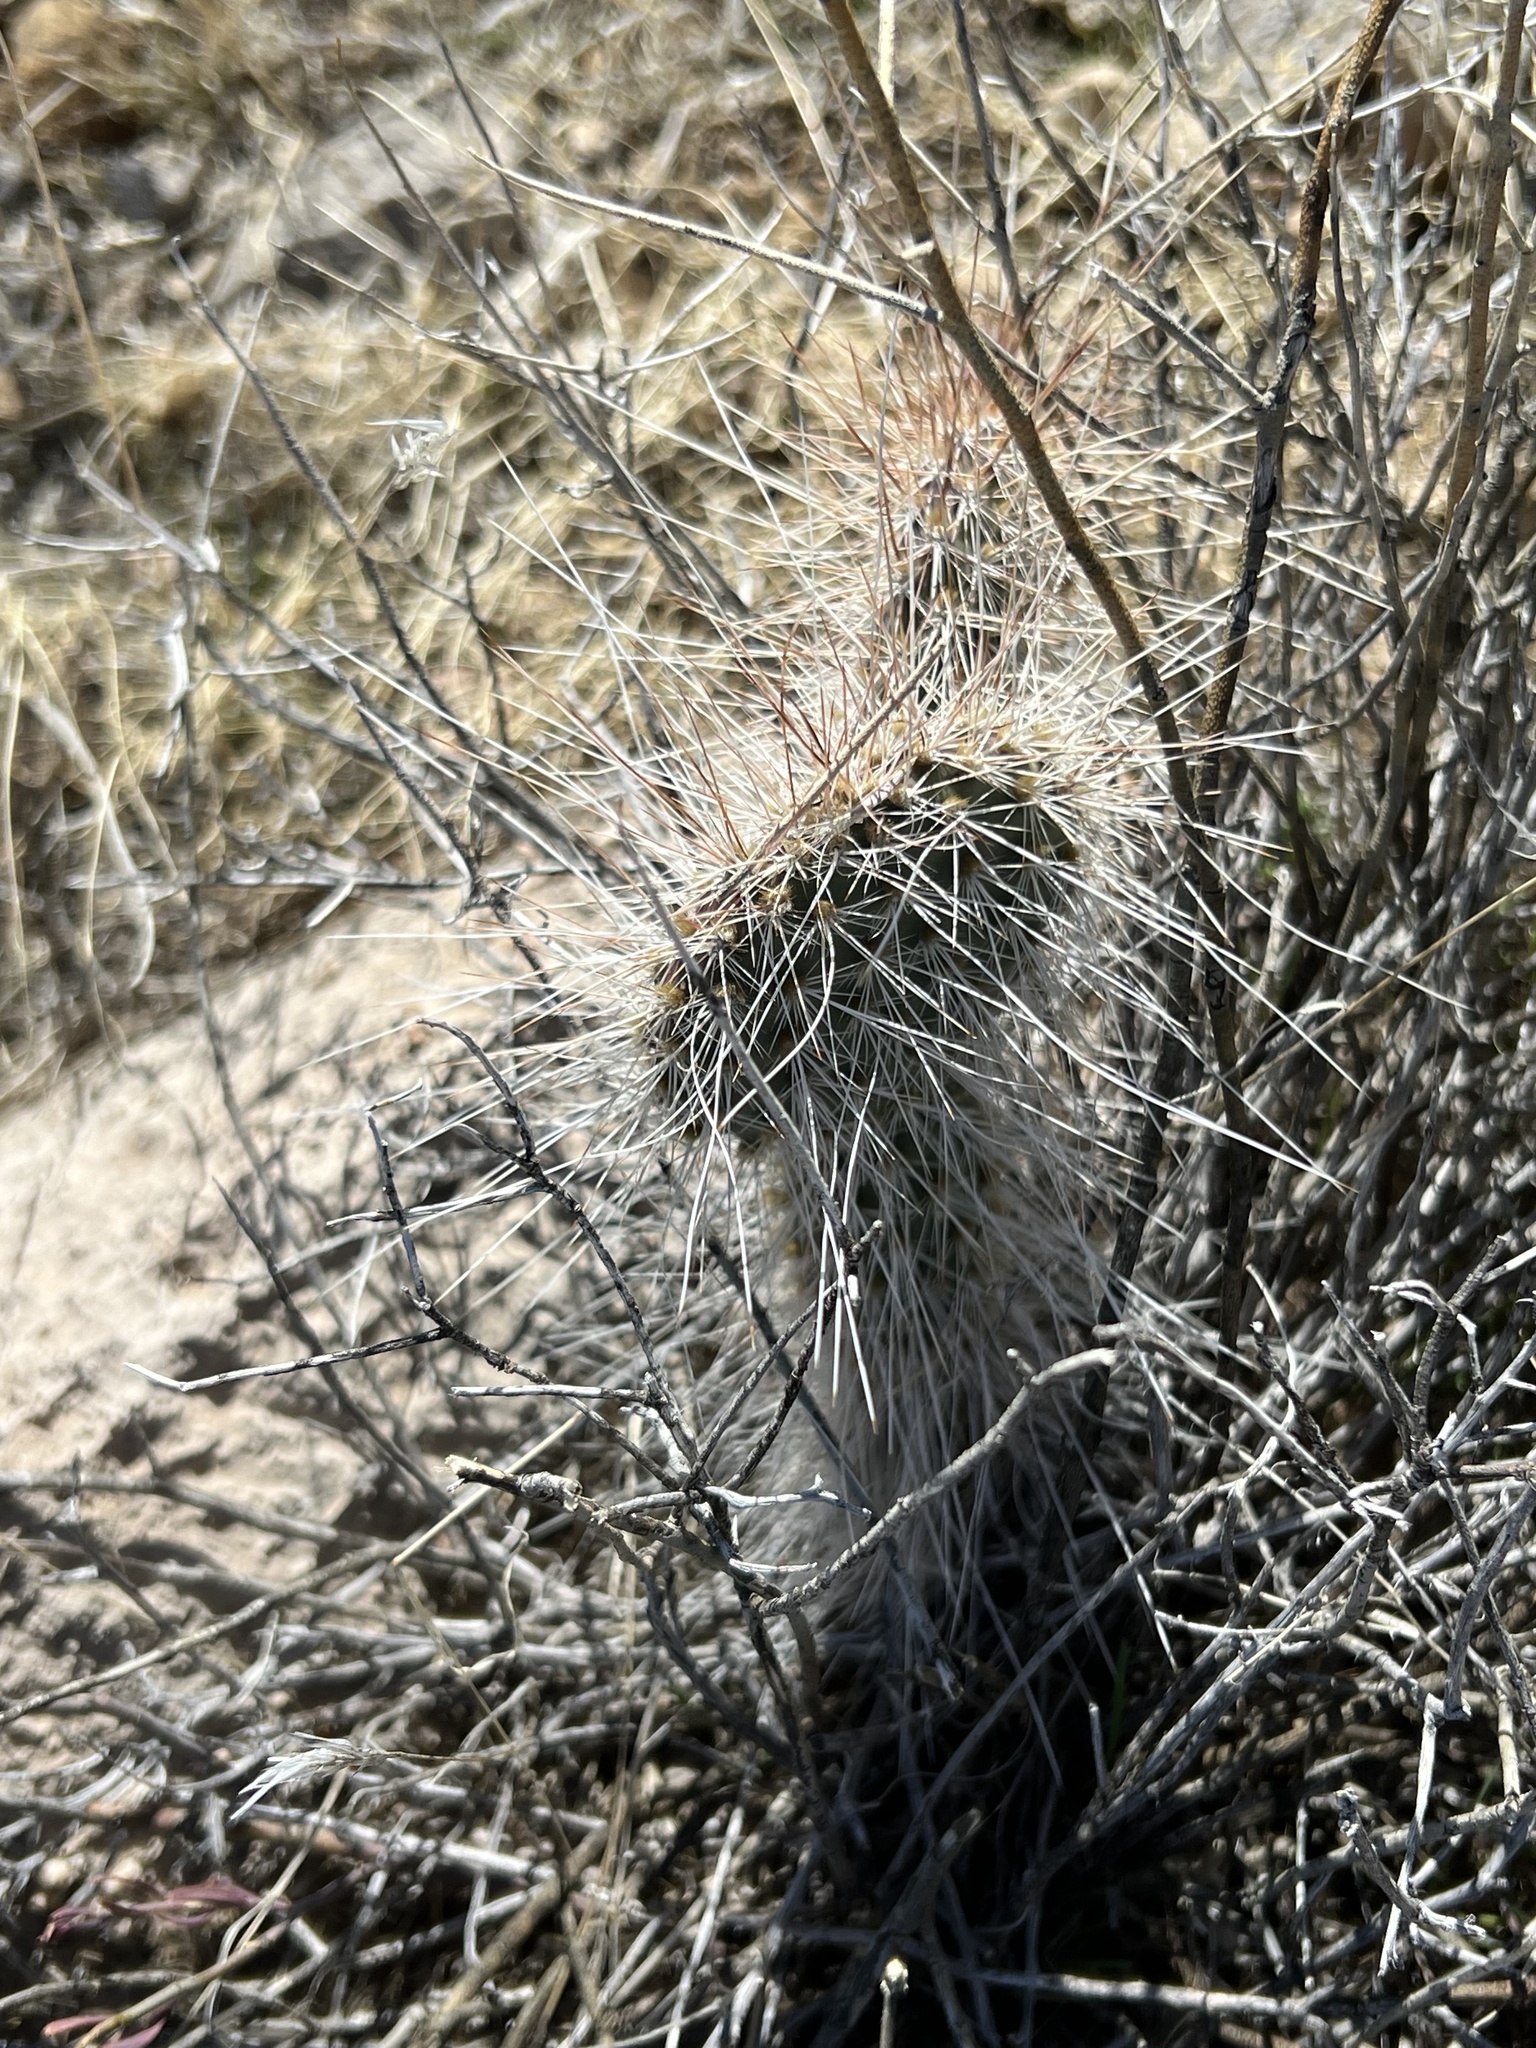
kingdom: Plantae
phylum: Tracheophyta
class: Magnoliopsida
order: Caryophyllales
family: Cactaceae
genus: Opuntia
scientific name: Opuntia polyacantha
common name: Plains prickly-pear
